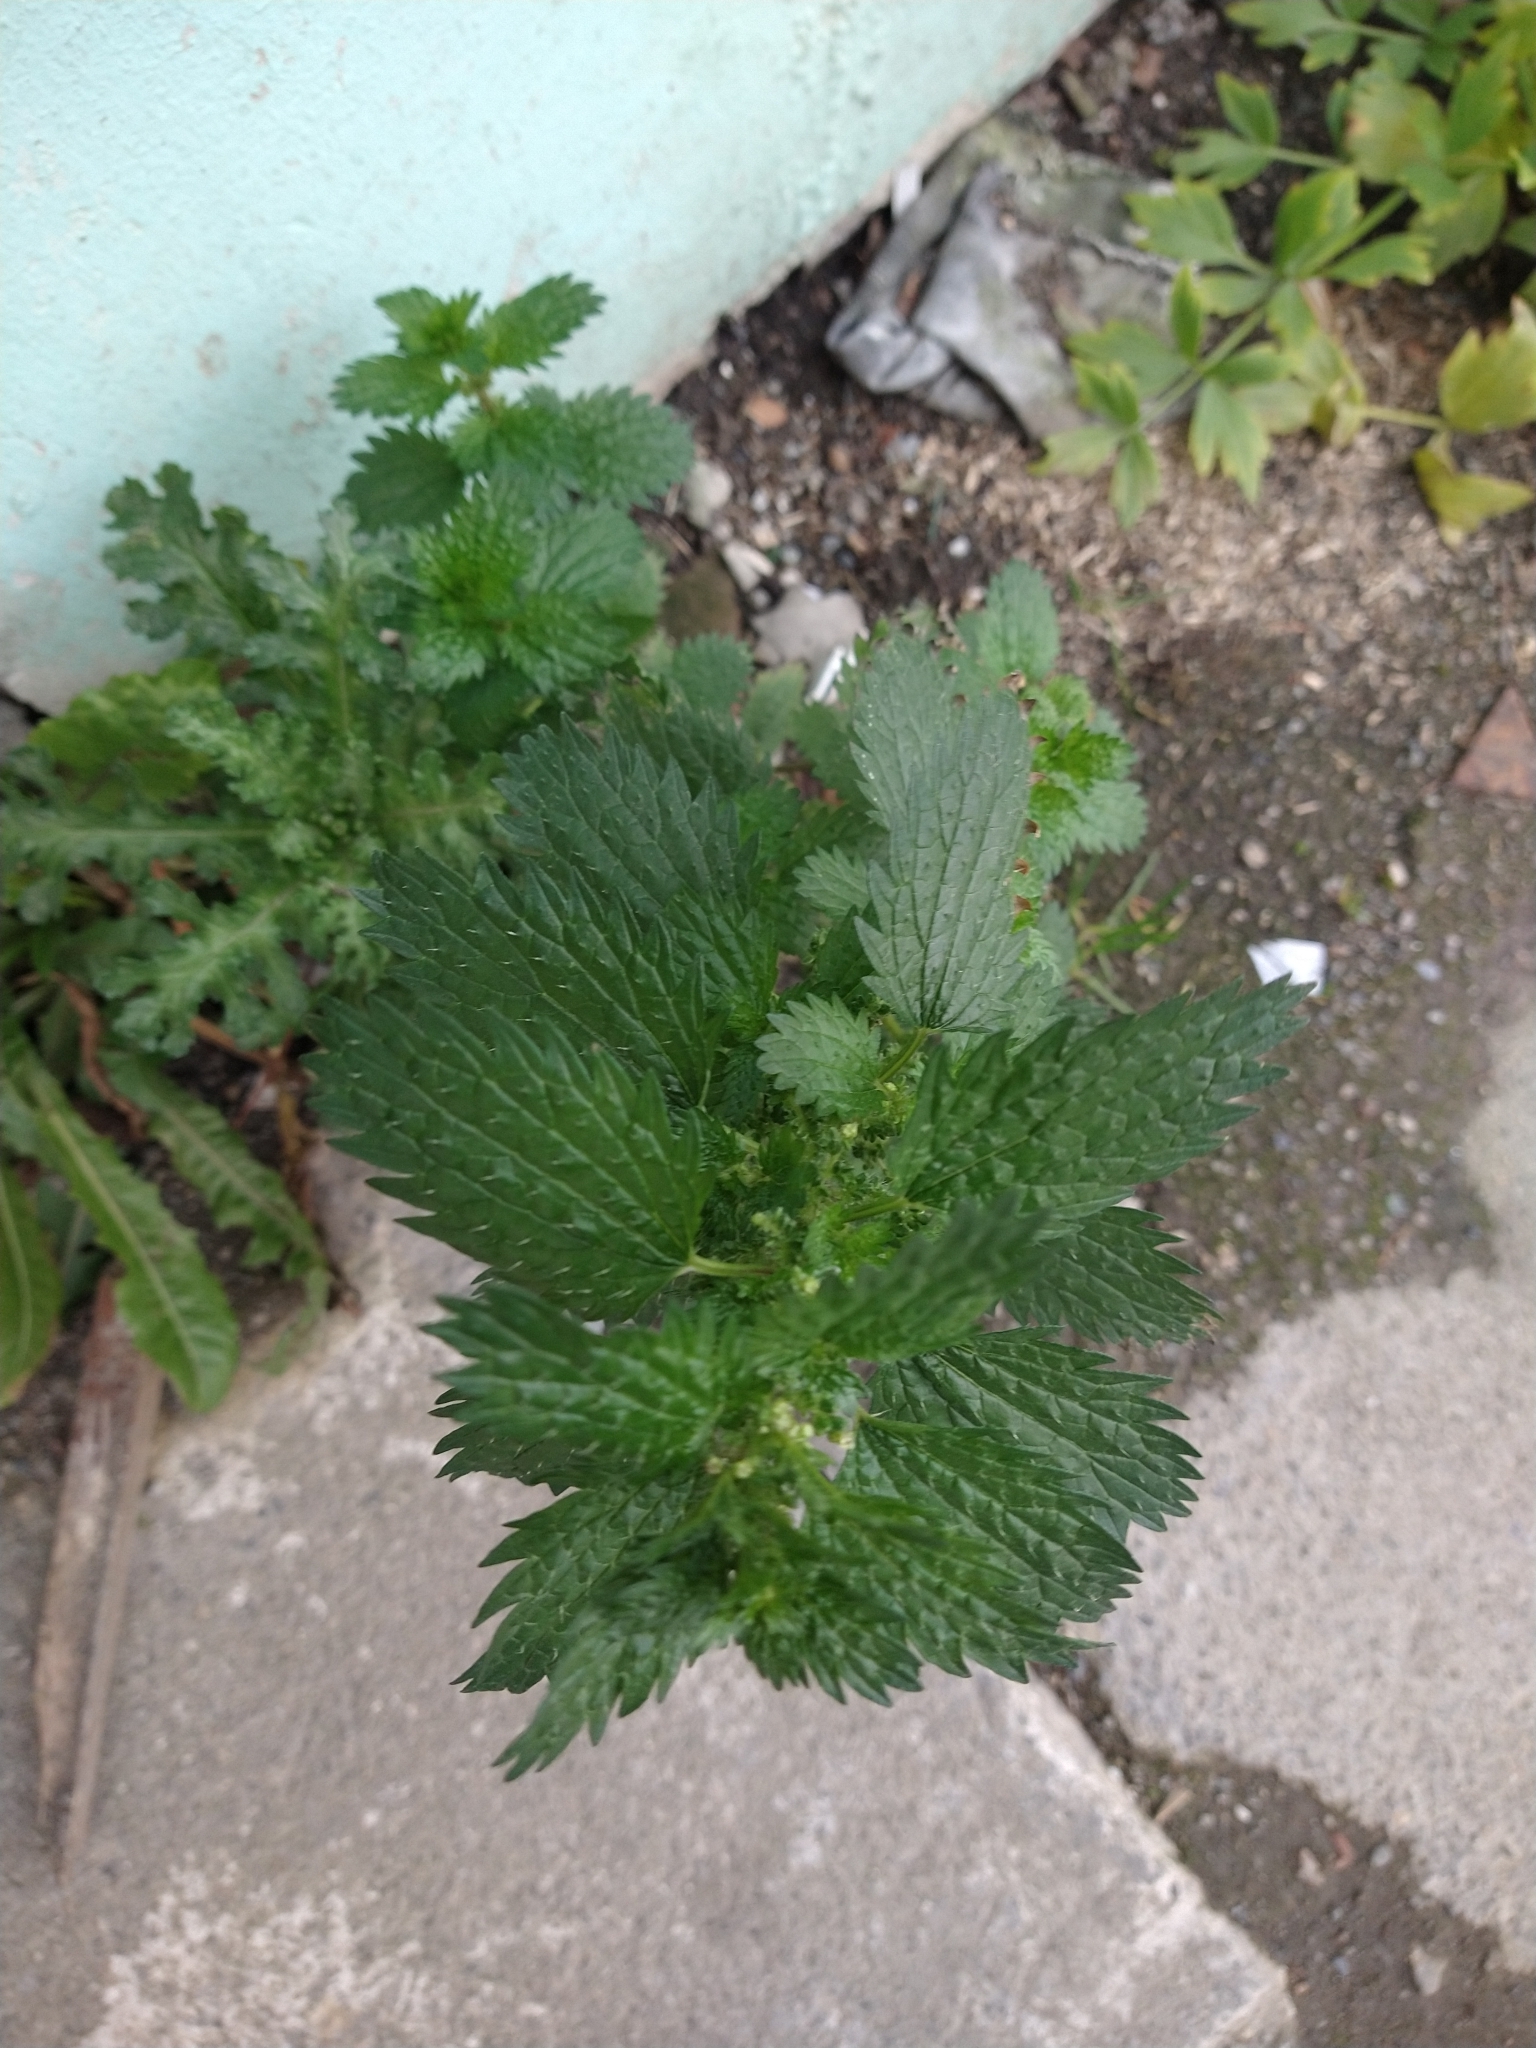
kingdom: Plantae
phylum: Tracheophyta
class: Magnoliopsida
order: Rosales
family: Urticaceae
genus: Urtica
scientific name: Urtica dioica
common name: Common nettle
